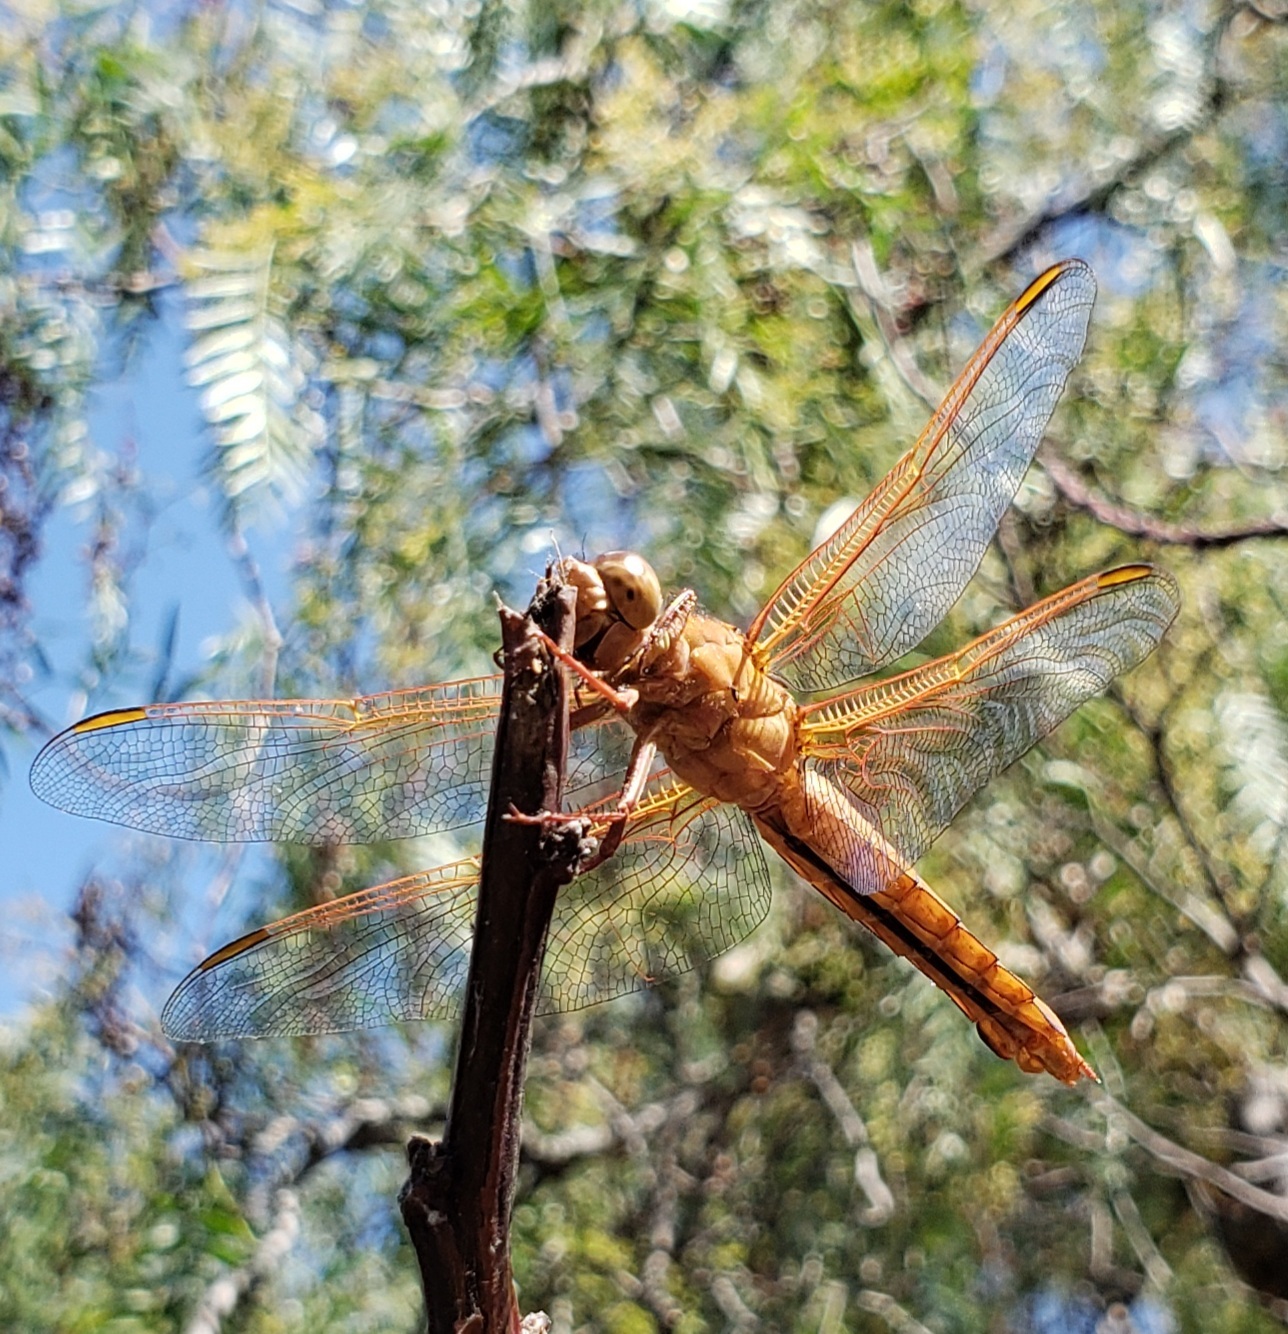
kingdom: Animalia
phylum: Arthropoda
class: Insecta
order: Odonata
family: Libellulidae
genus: Libellula
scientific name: Libellula saturata
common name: Flame skimmer
